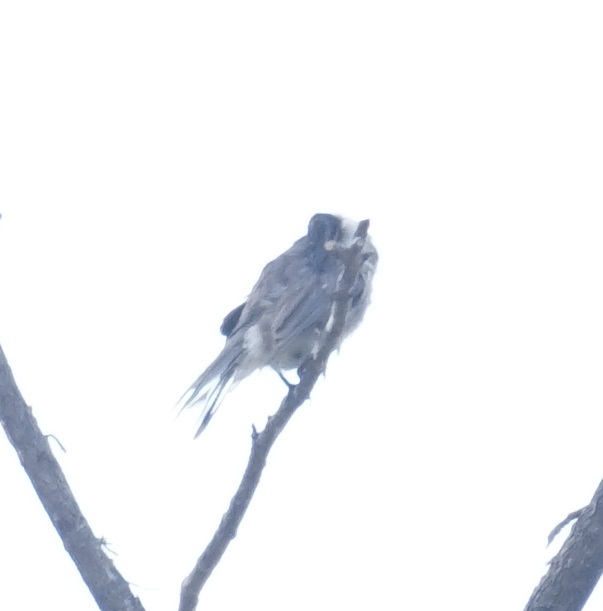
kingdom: Animalia
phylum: Chordata
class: Aves
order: Passeriformes
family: Meliphagidae
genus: Philemon
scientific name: Philemon corniculatus
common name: Noisy friarbird
